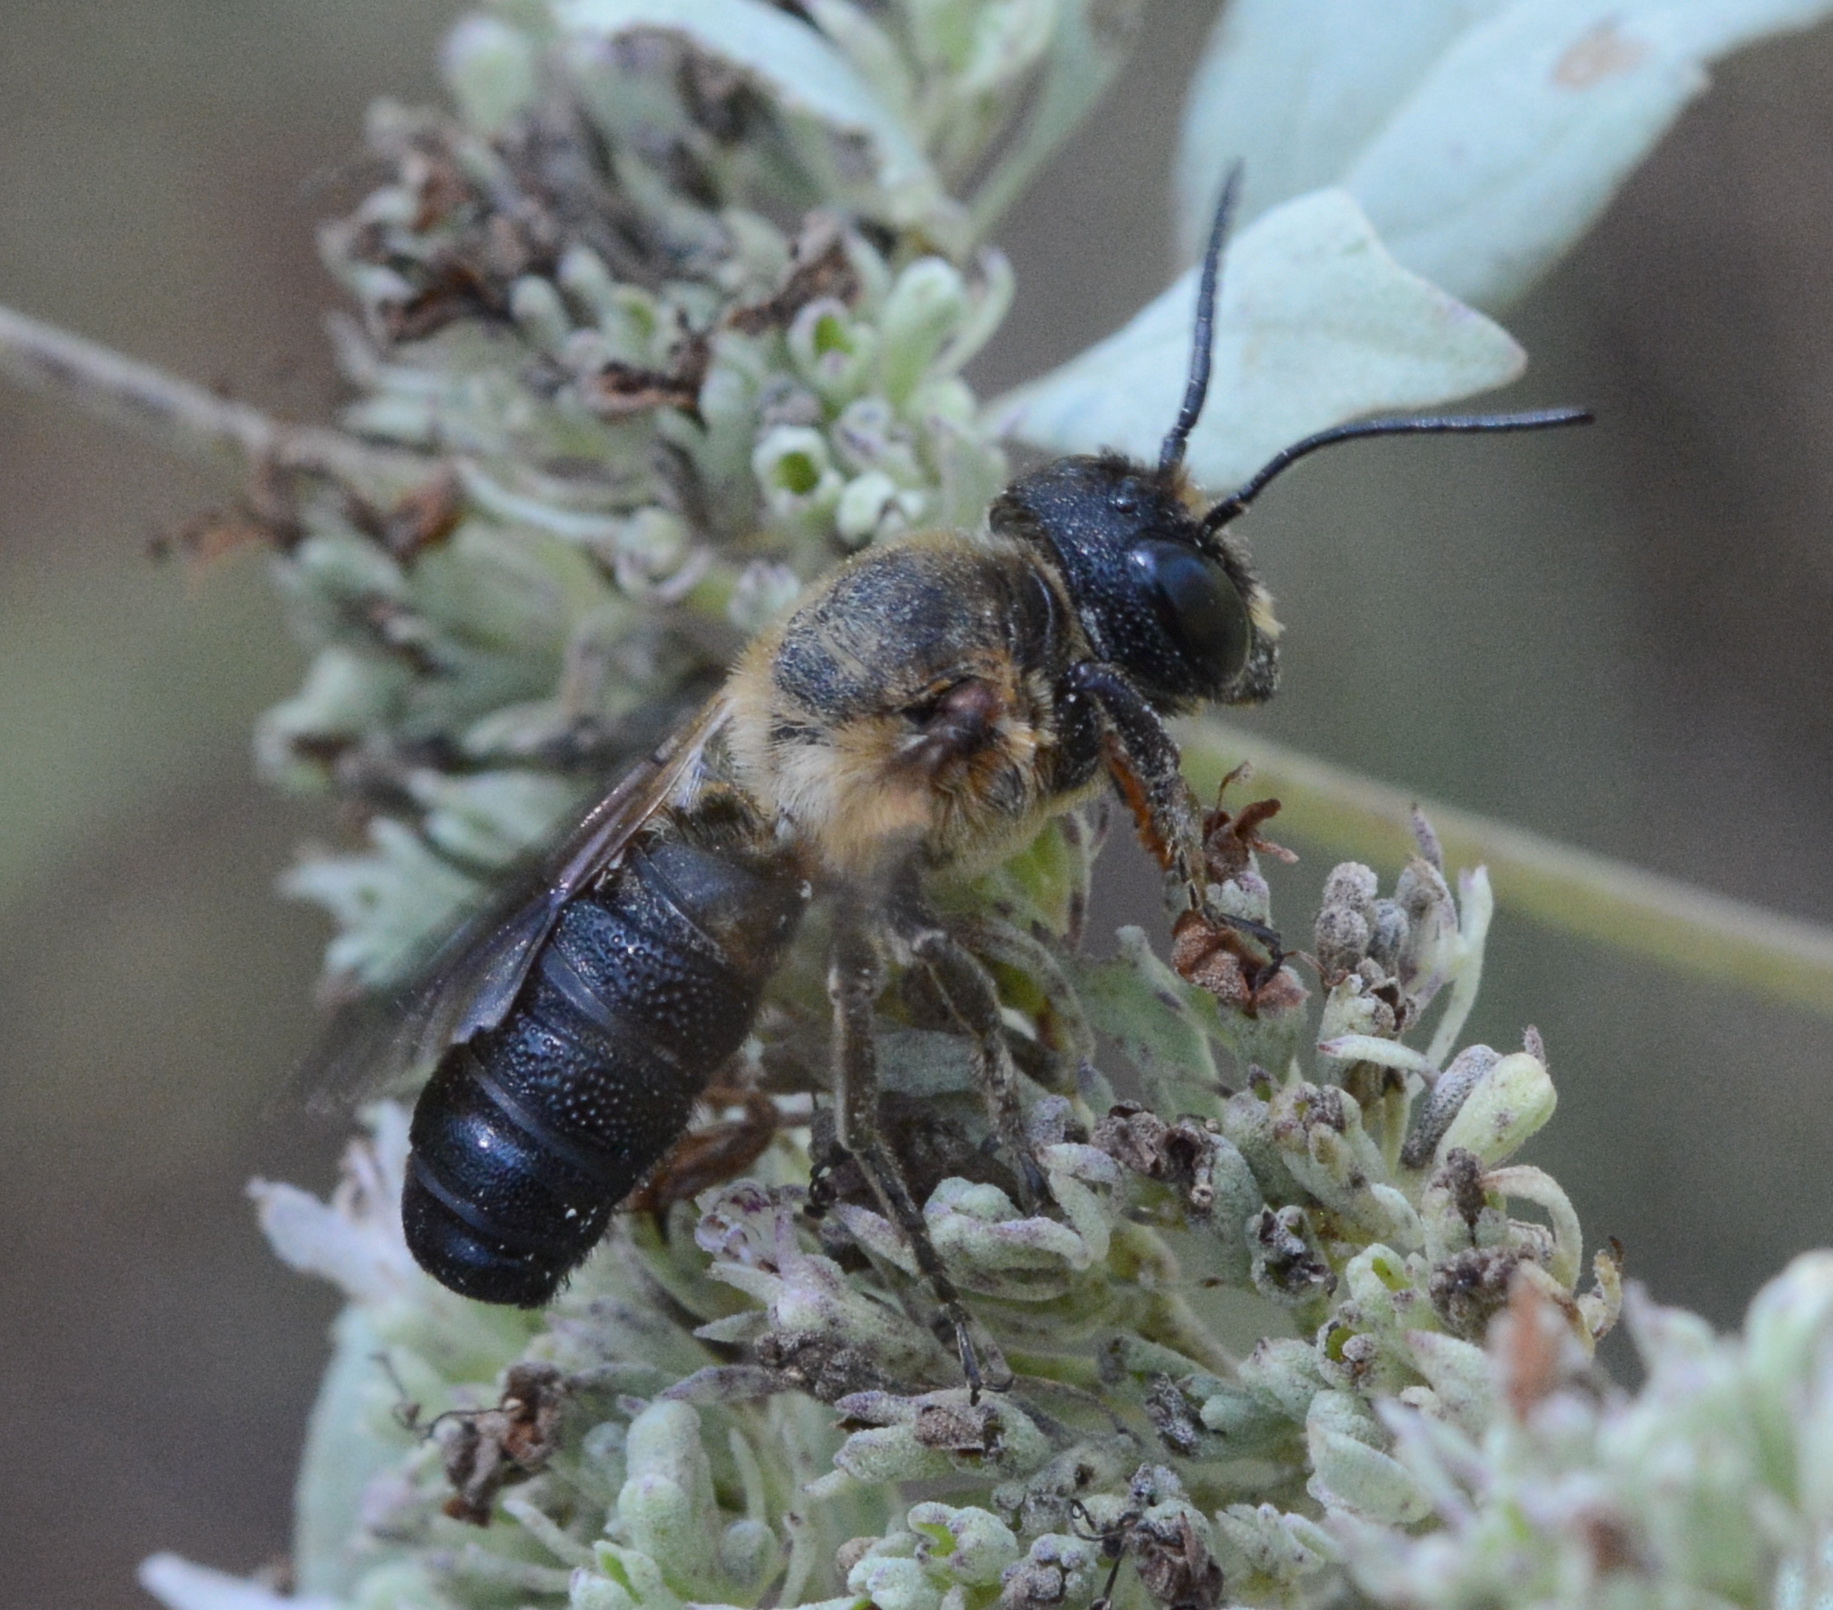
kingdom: Animalia
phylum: Arthropoda
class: Insecta
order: Hymenoptera
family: Megachilidae
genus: Megachile
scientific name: Megachile sculpturalis
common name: Sculptured resin bee
